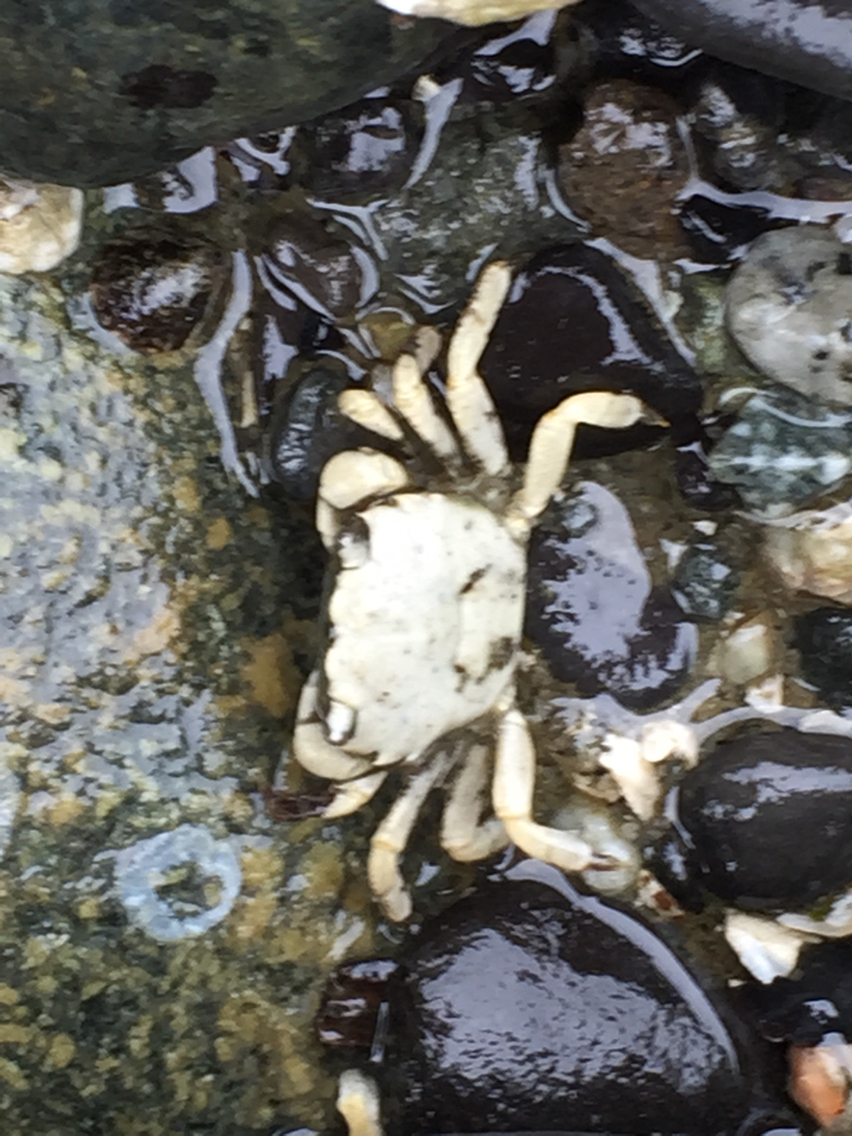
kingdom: Animalia
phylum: Arthropoda
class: Malacostraca
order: Decapoda
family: Varunidae
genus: Hemigrapsus
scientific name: Hemigrapsus oregonensis
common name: Yellow shore crab
